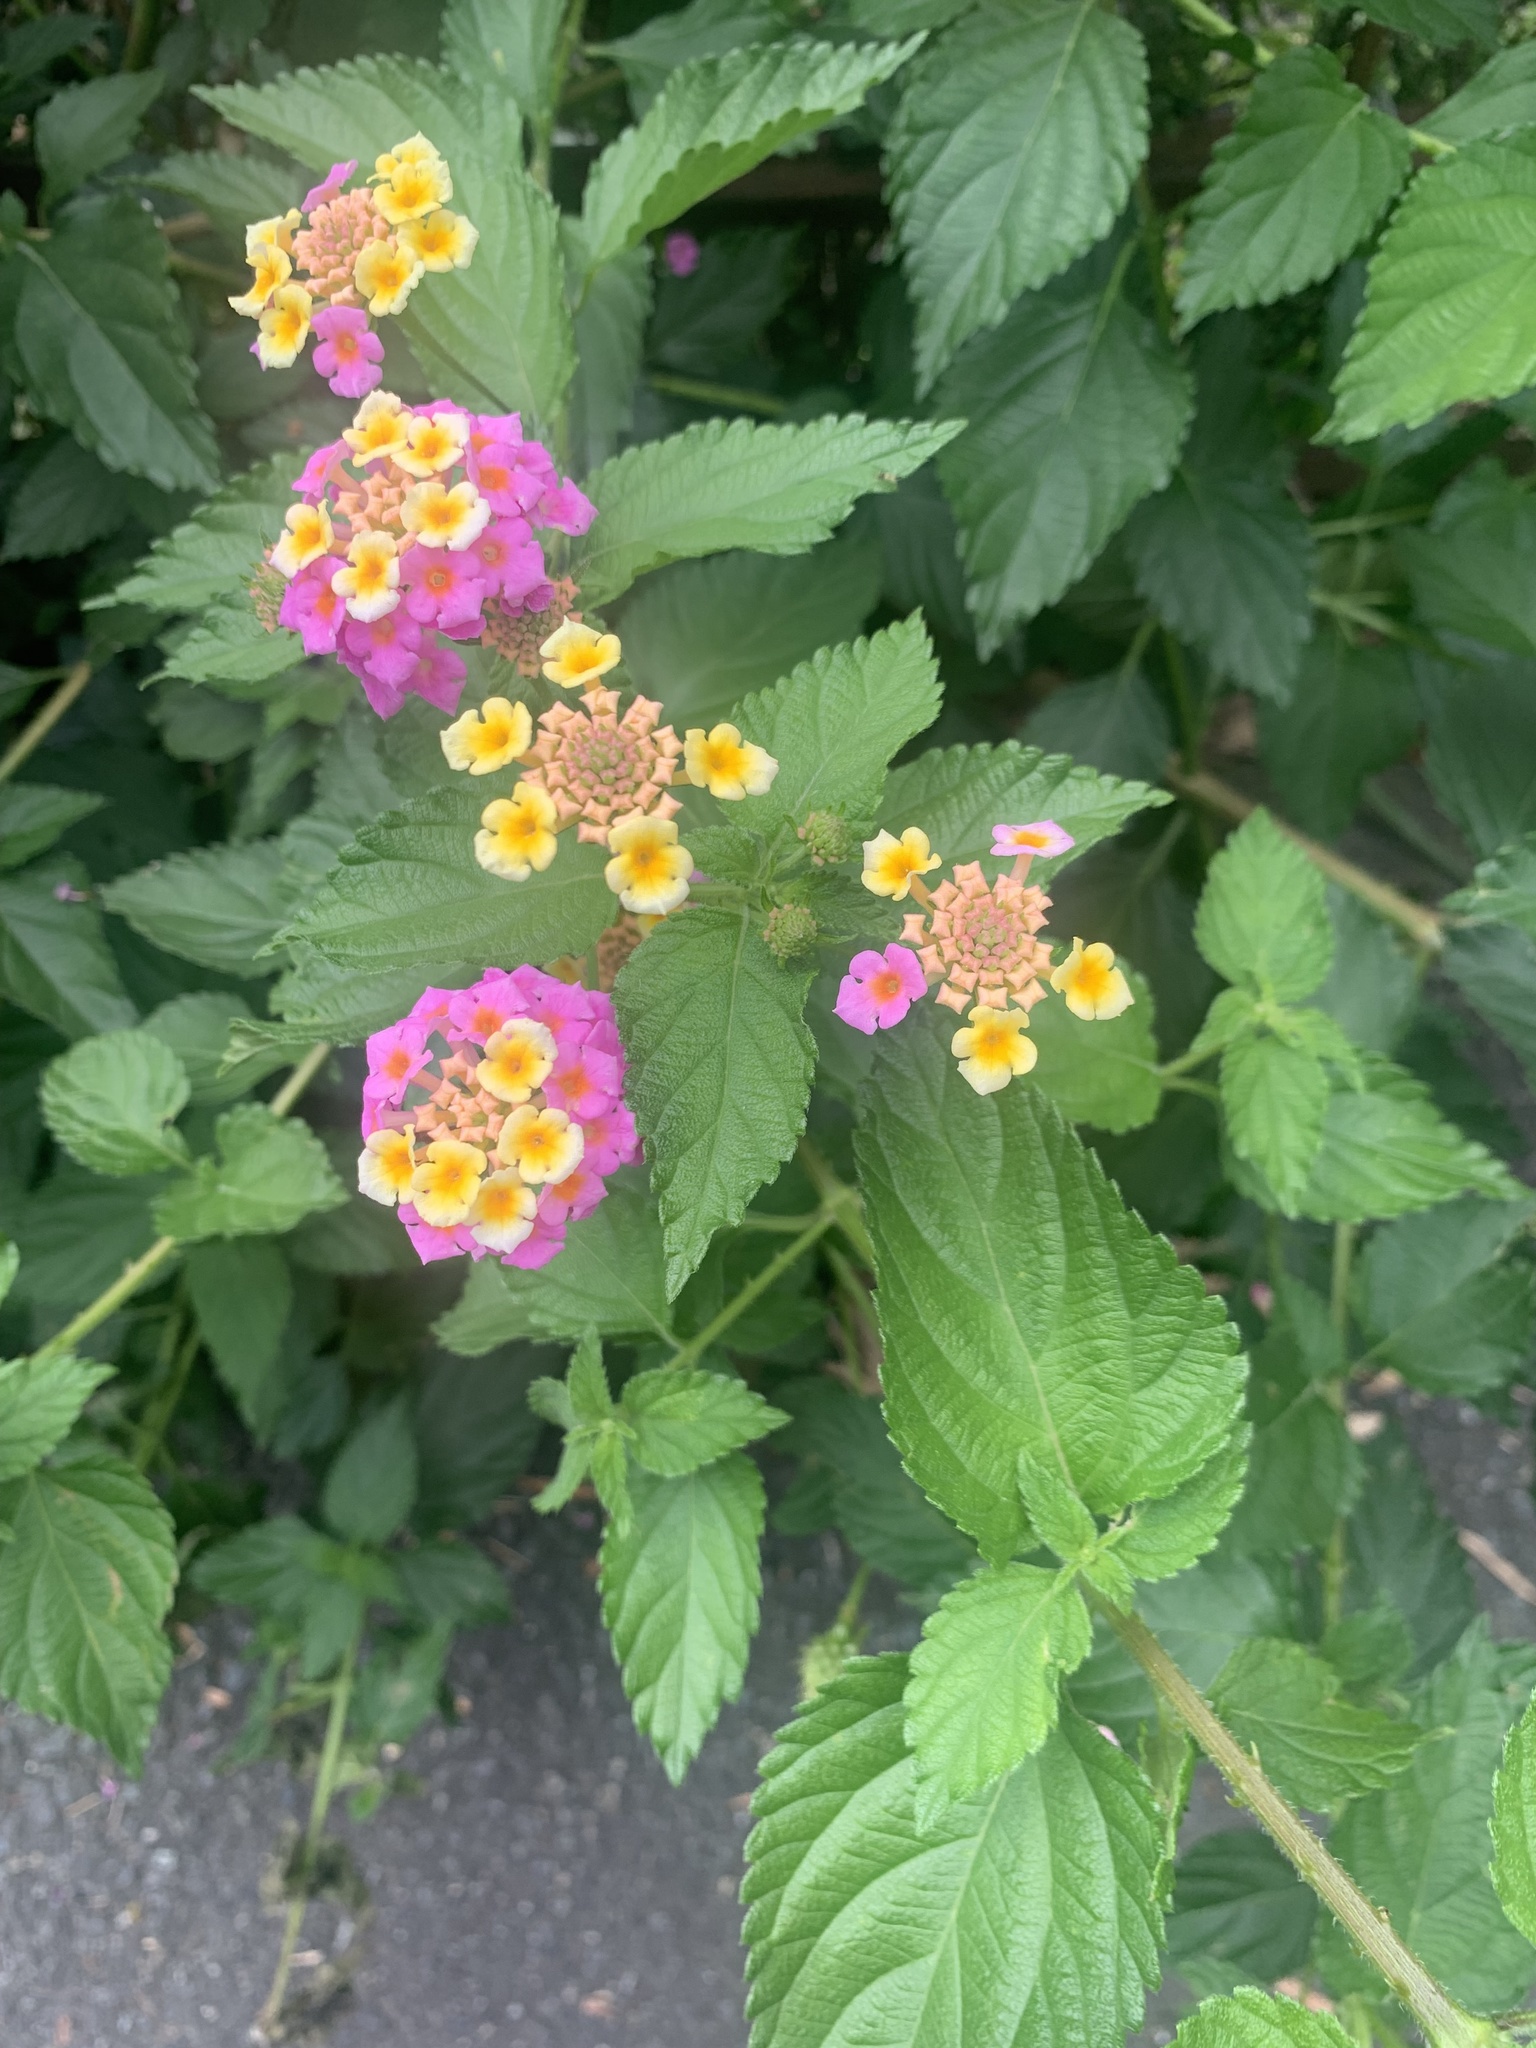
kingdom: Plantae
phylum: Tracheophyta
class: Magnoliopsida
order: Lamiales
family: Verbenaceae
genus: Lantana
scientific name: Lantana camara
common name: Lantana
